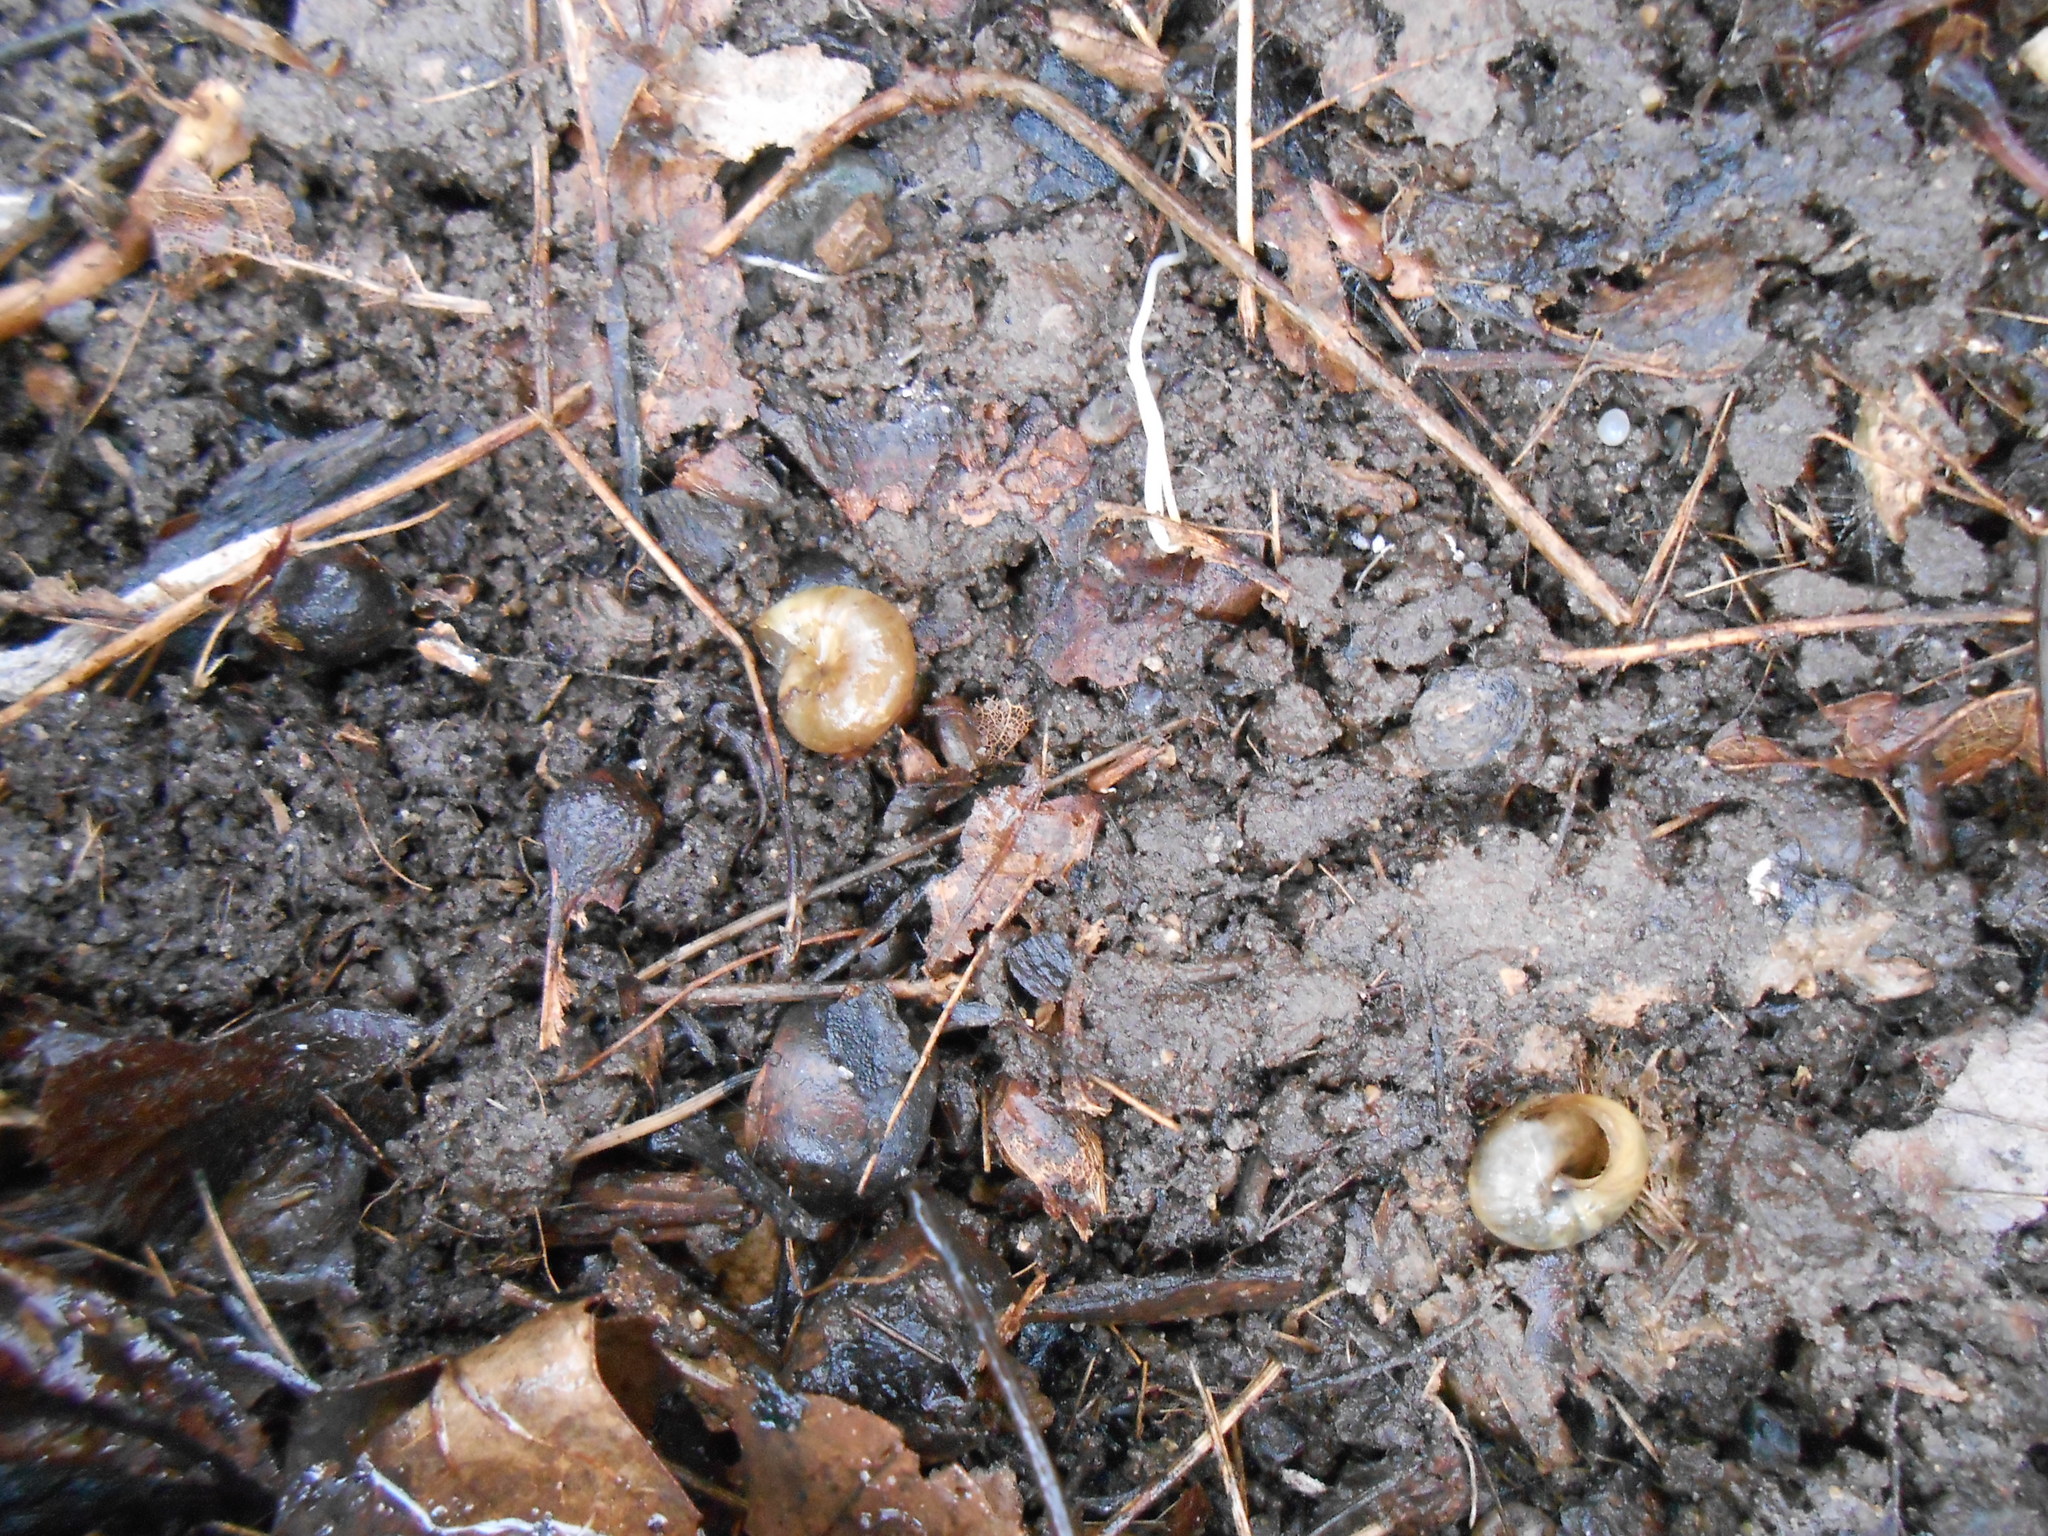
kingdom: Animalia
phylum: Mollusca
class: Gastropoda
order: Stylommatophora
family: Gastrodontidae
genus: Ventridens
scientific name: Ventridens ligera
